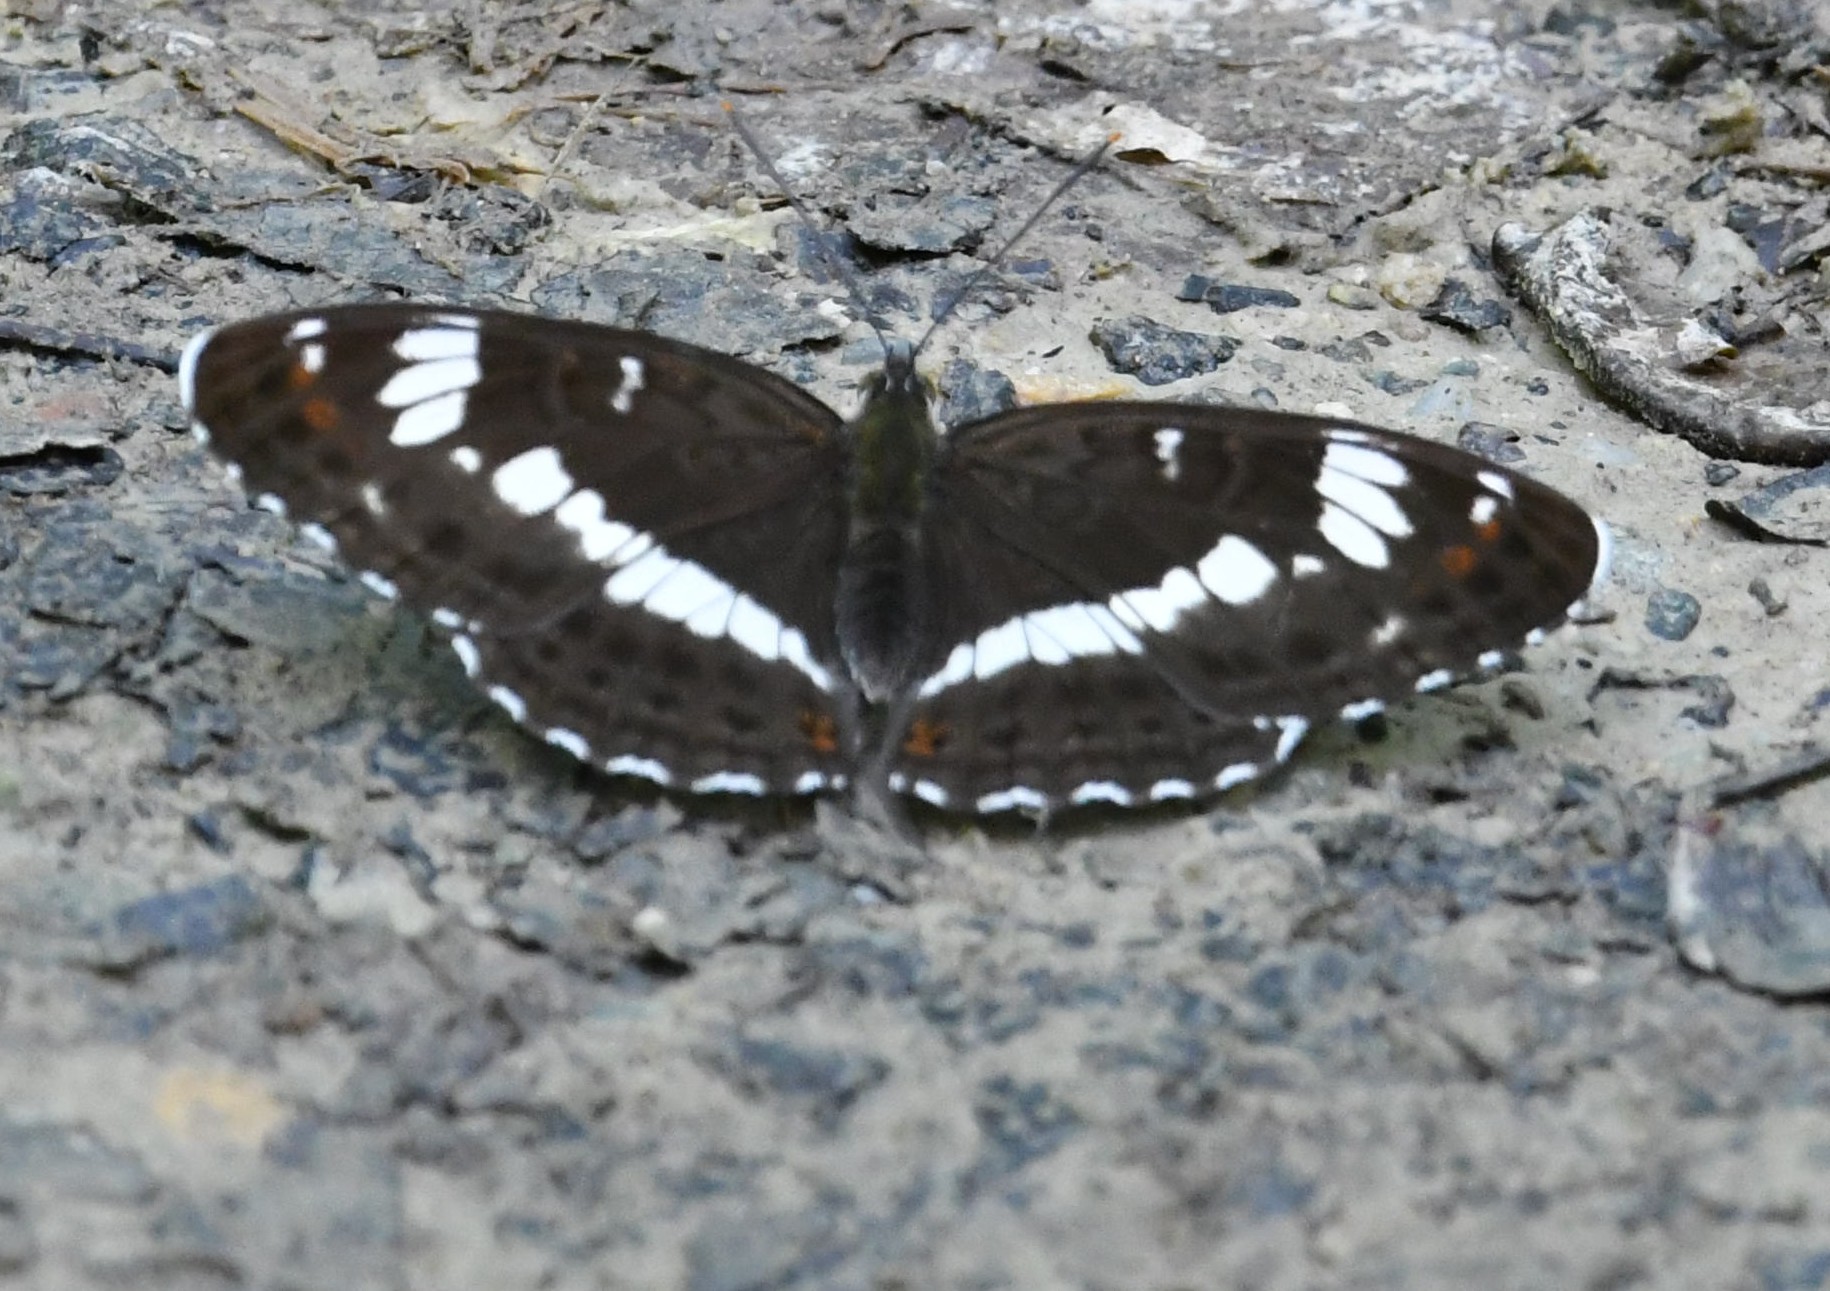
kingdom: Animalia
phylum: Arthropoda
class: Insecta
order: Lepidoptera
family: Nymphalidae
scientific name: Nymphalidae
